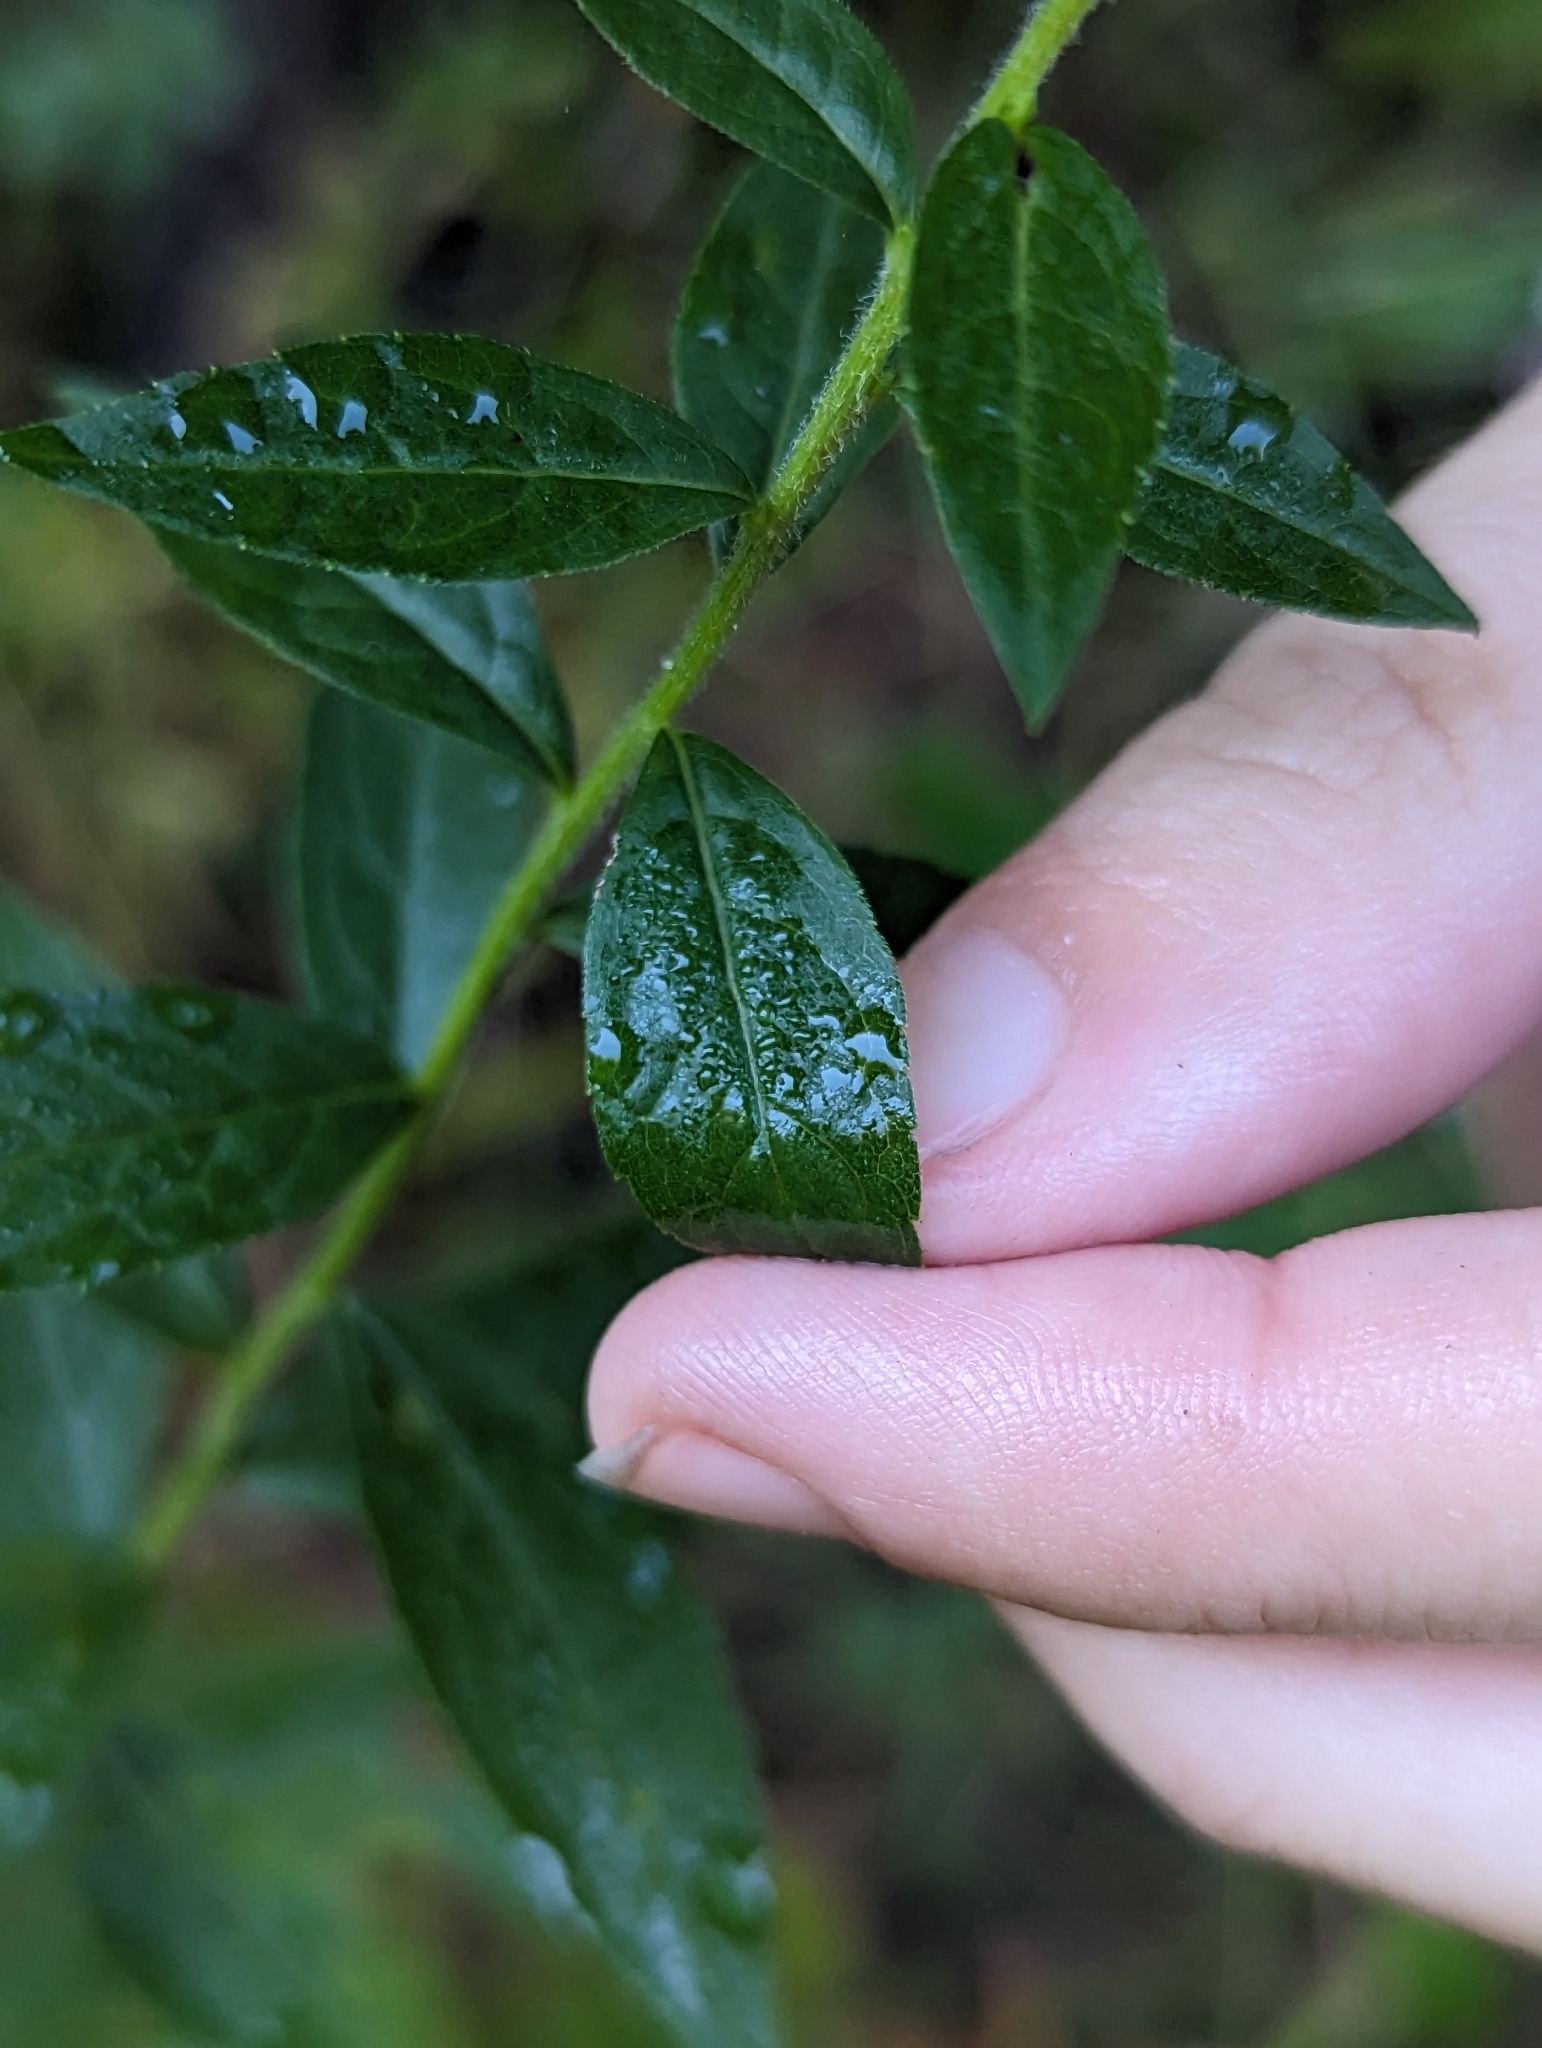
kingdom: Plantae
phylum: Tracheophyta
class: Magnoliopsida
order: Asterales
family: Asteraceae
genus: Solidago
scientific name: Solidago rugosa
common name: Rough-stemmed goldenrod
